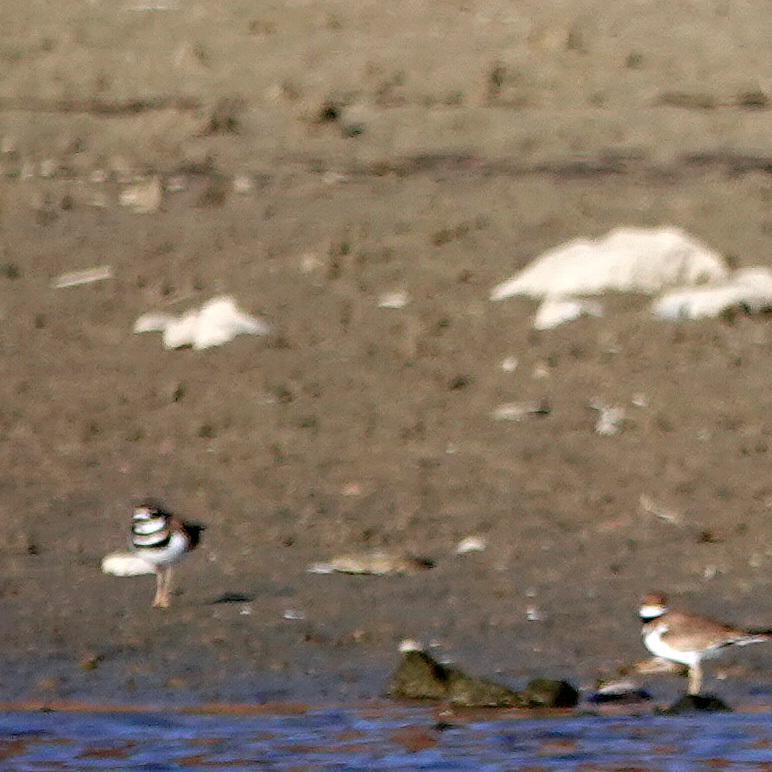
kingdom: Animalia
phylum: Chordata
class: Aves
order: Charadriiformes
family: Charadriidae
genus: Charadrius
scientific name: Charadrius vociferus
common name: Killdeer
